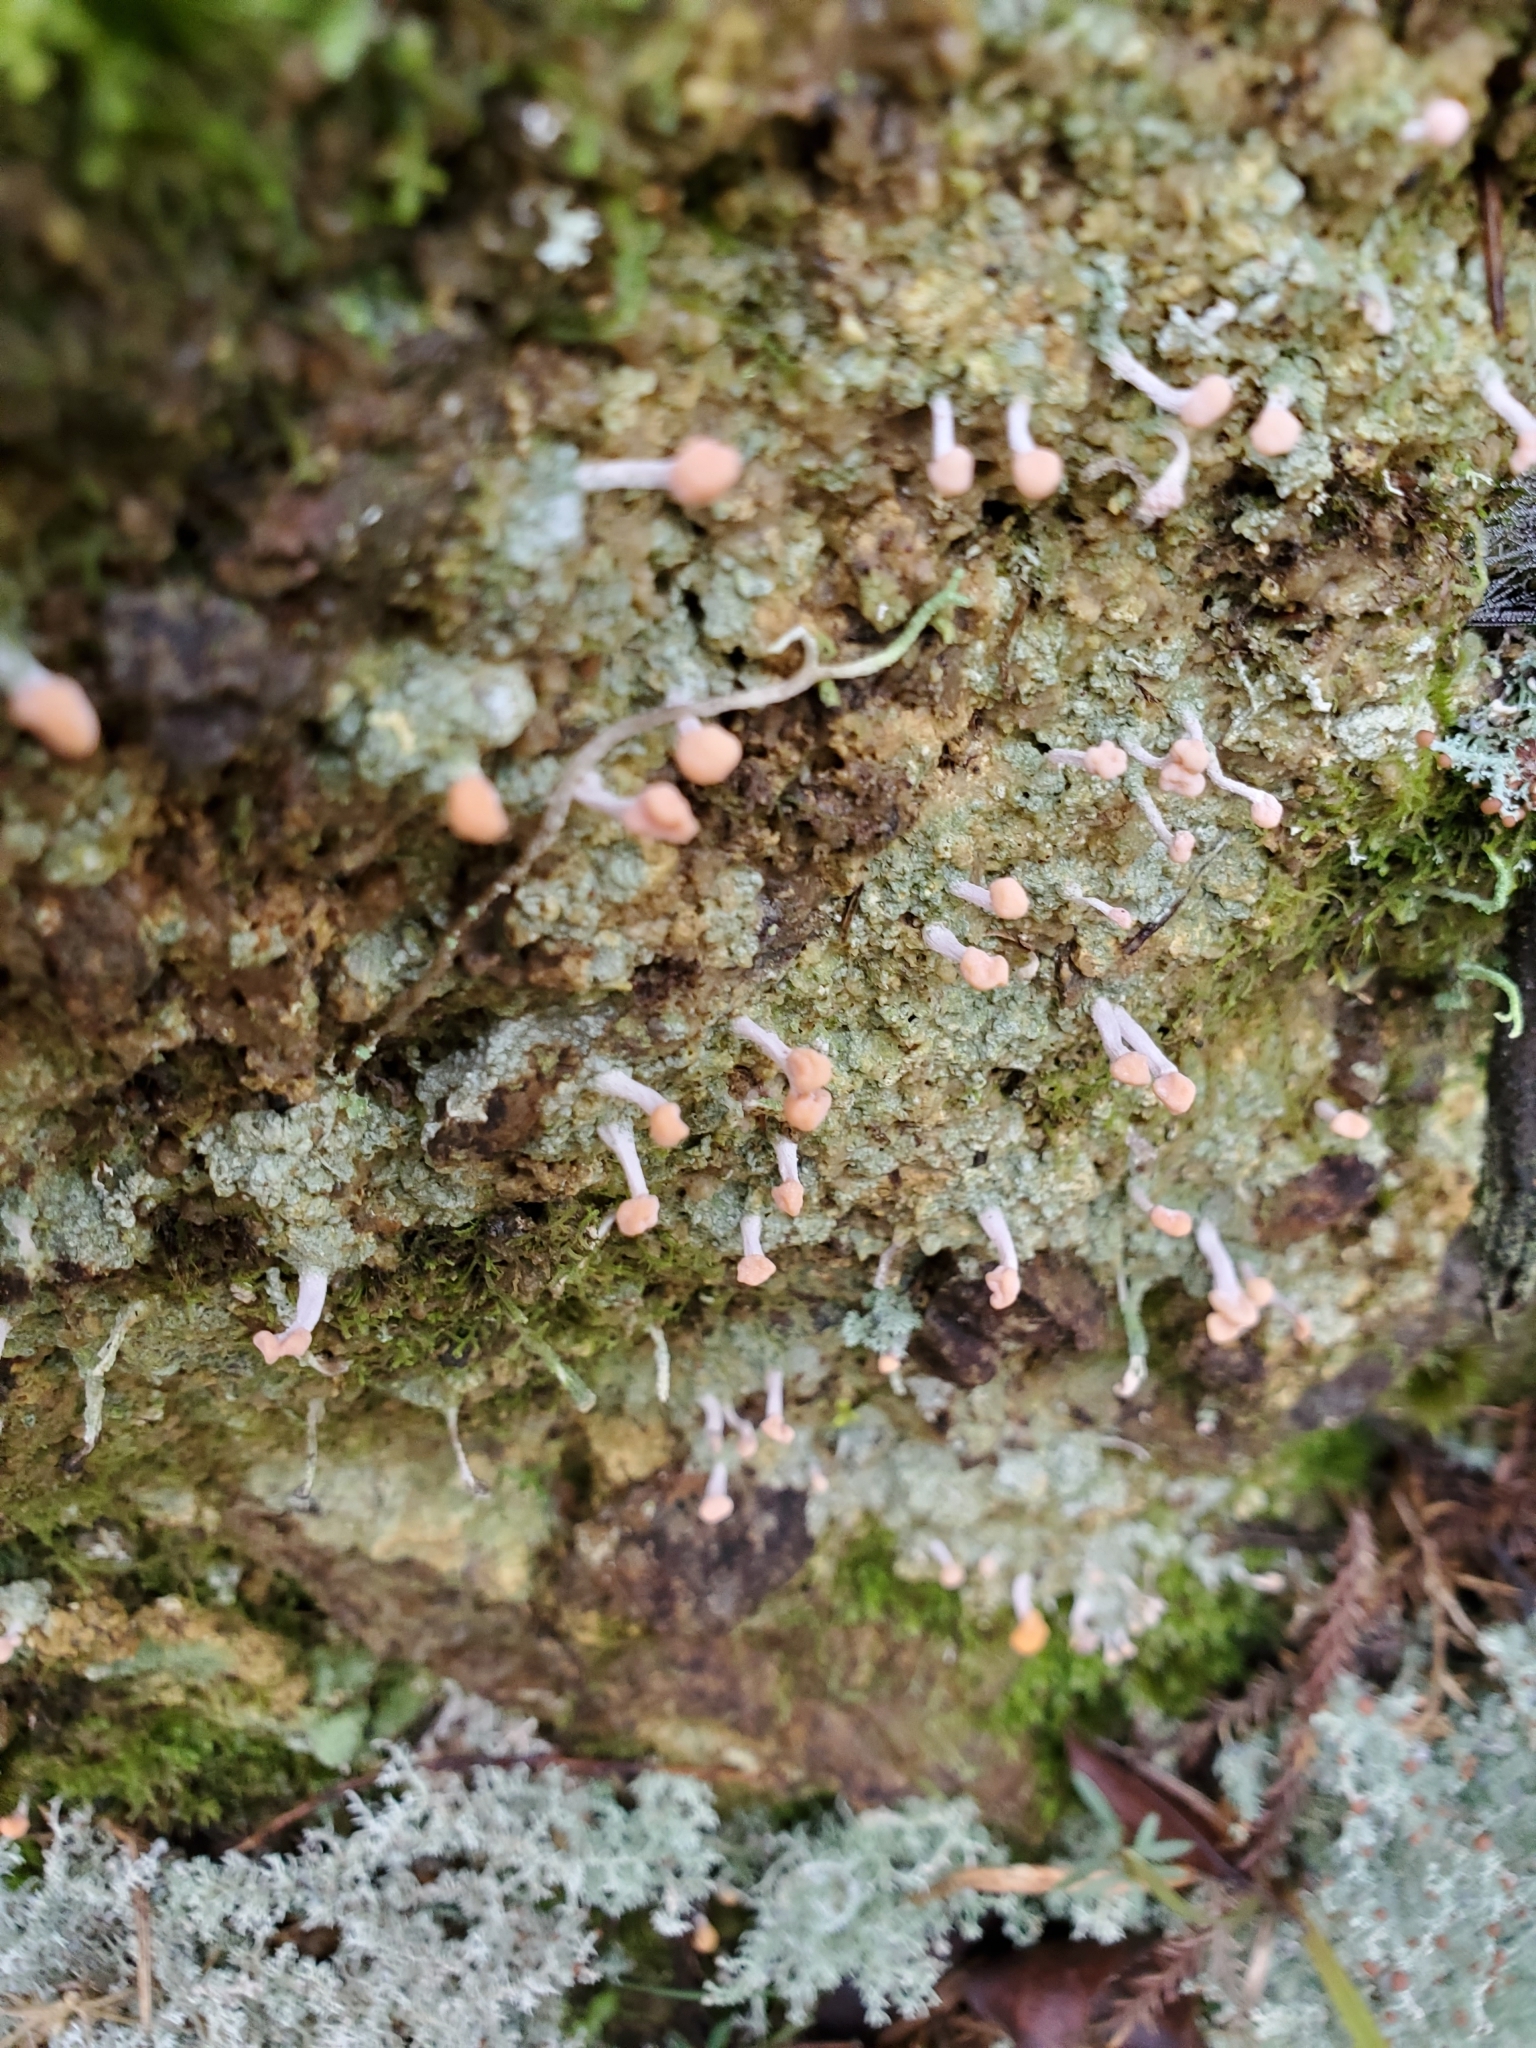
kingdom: Fungi
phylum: Ascomycota
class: Lecanoromycetes
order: Pertusariales
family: Icmadophilaceae
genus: Dibaeis
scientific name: Dibaeis arcuata
